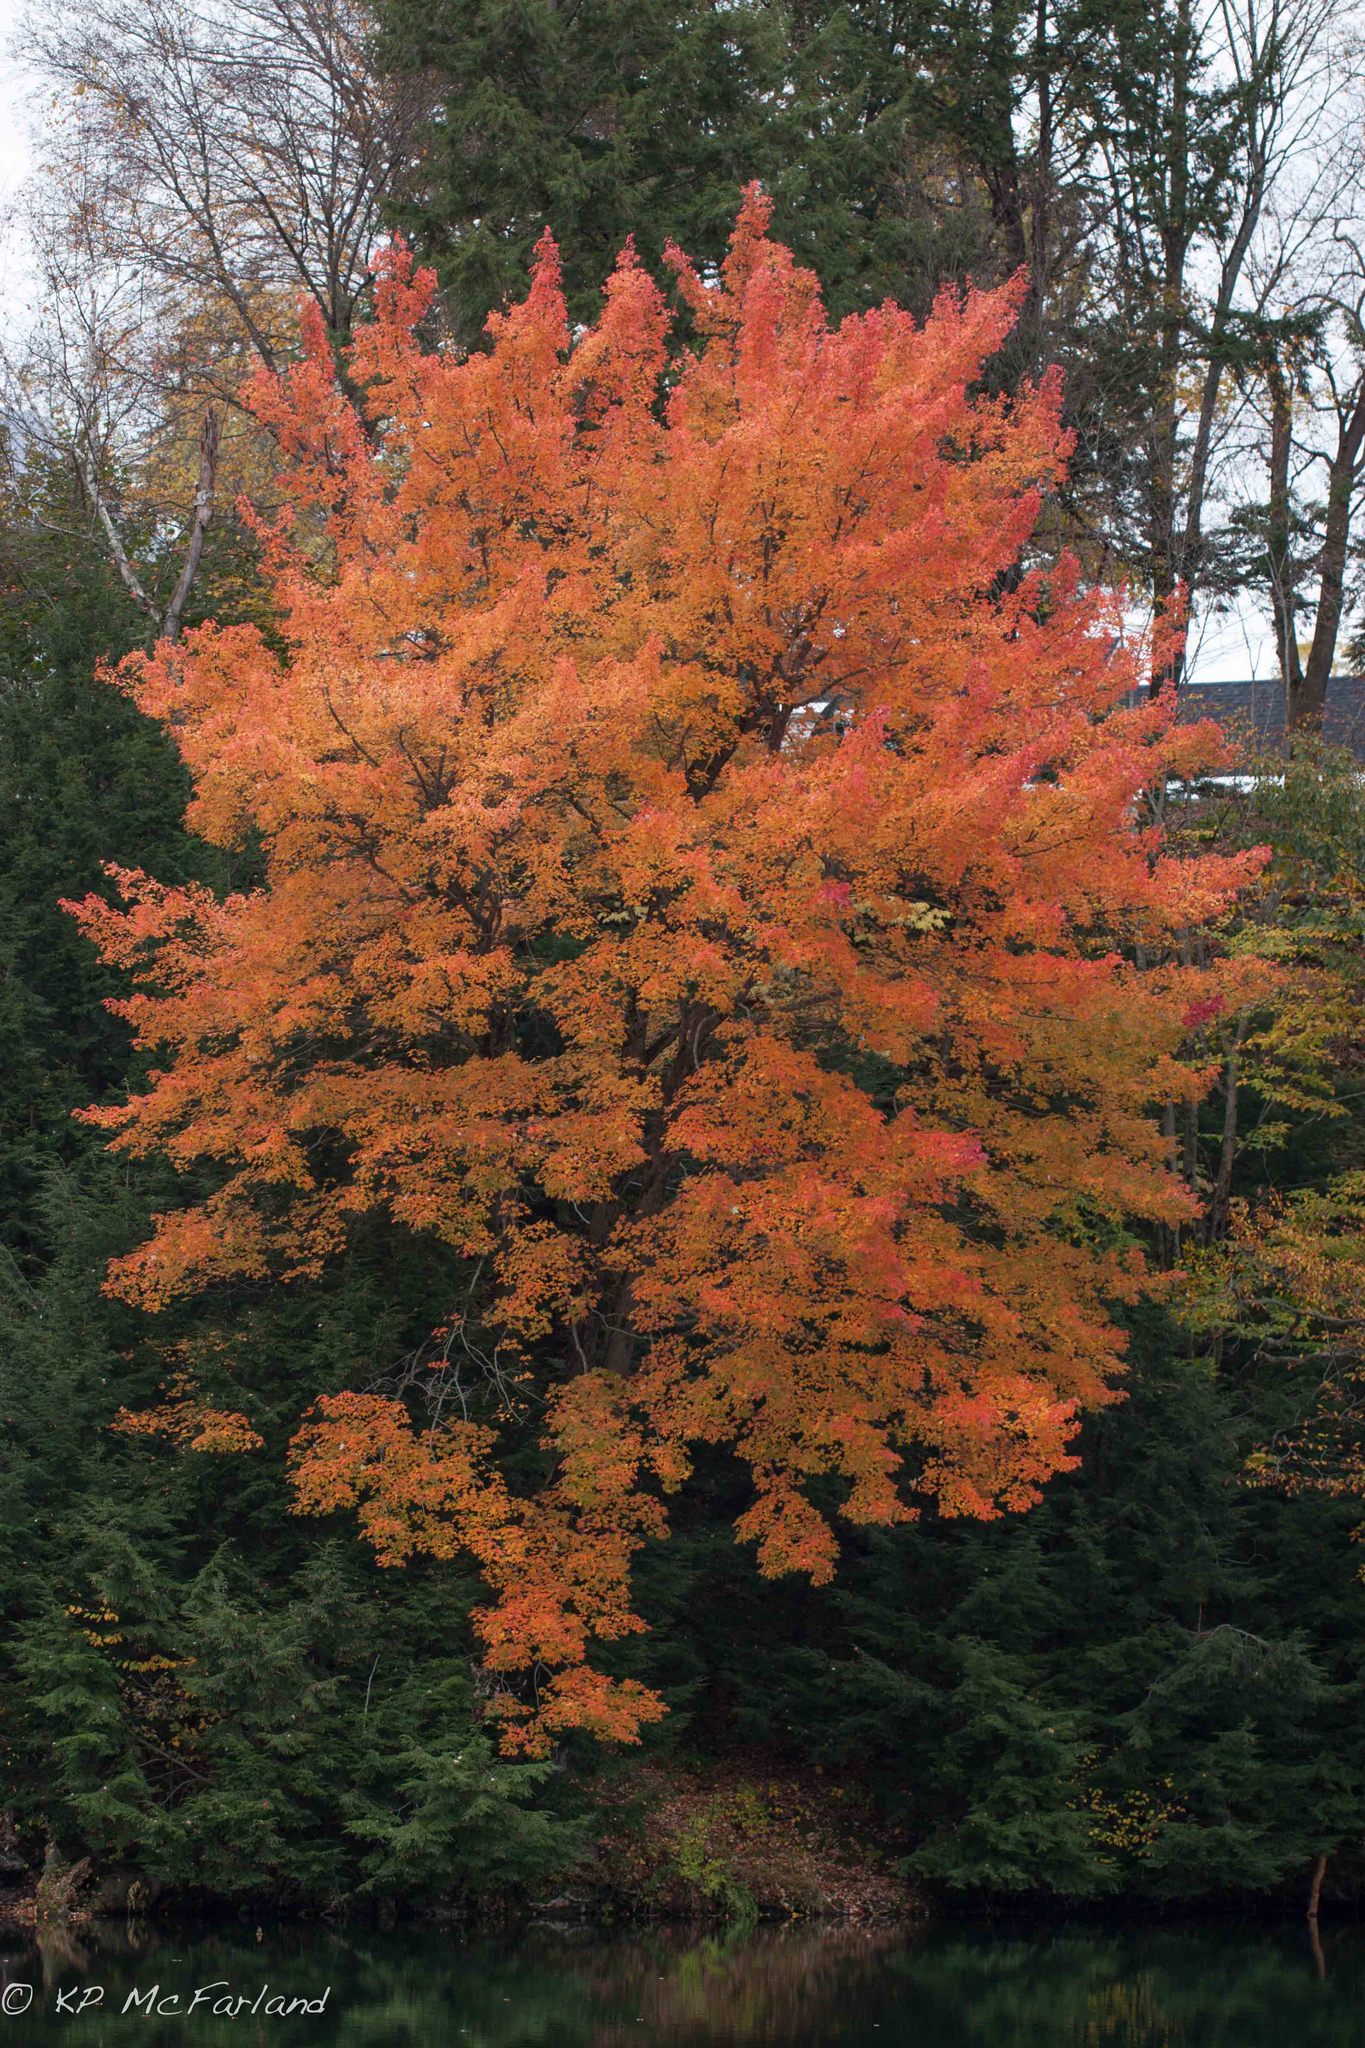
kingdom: Plantae
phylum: Tracheophyta
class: Magnoliopsida
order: Sapindales
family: Sapindaceae
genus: Acer
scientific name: Acer saccharum
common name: Sugar maple
